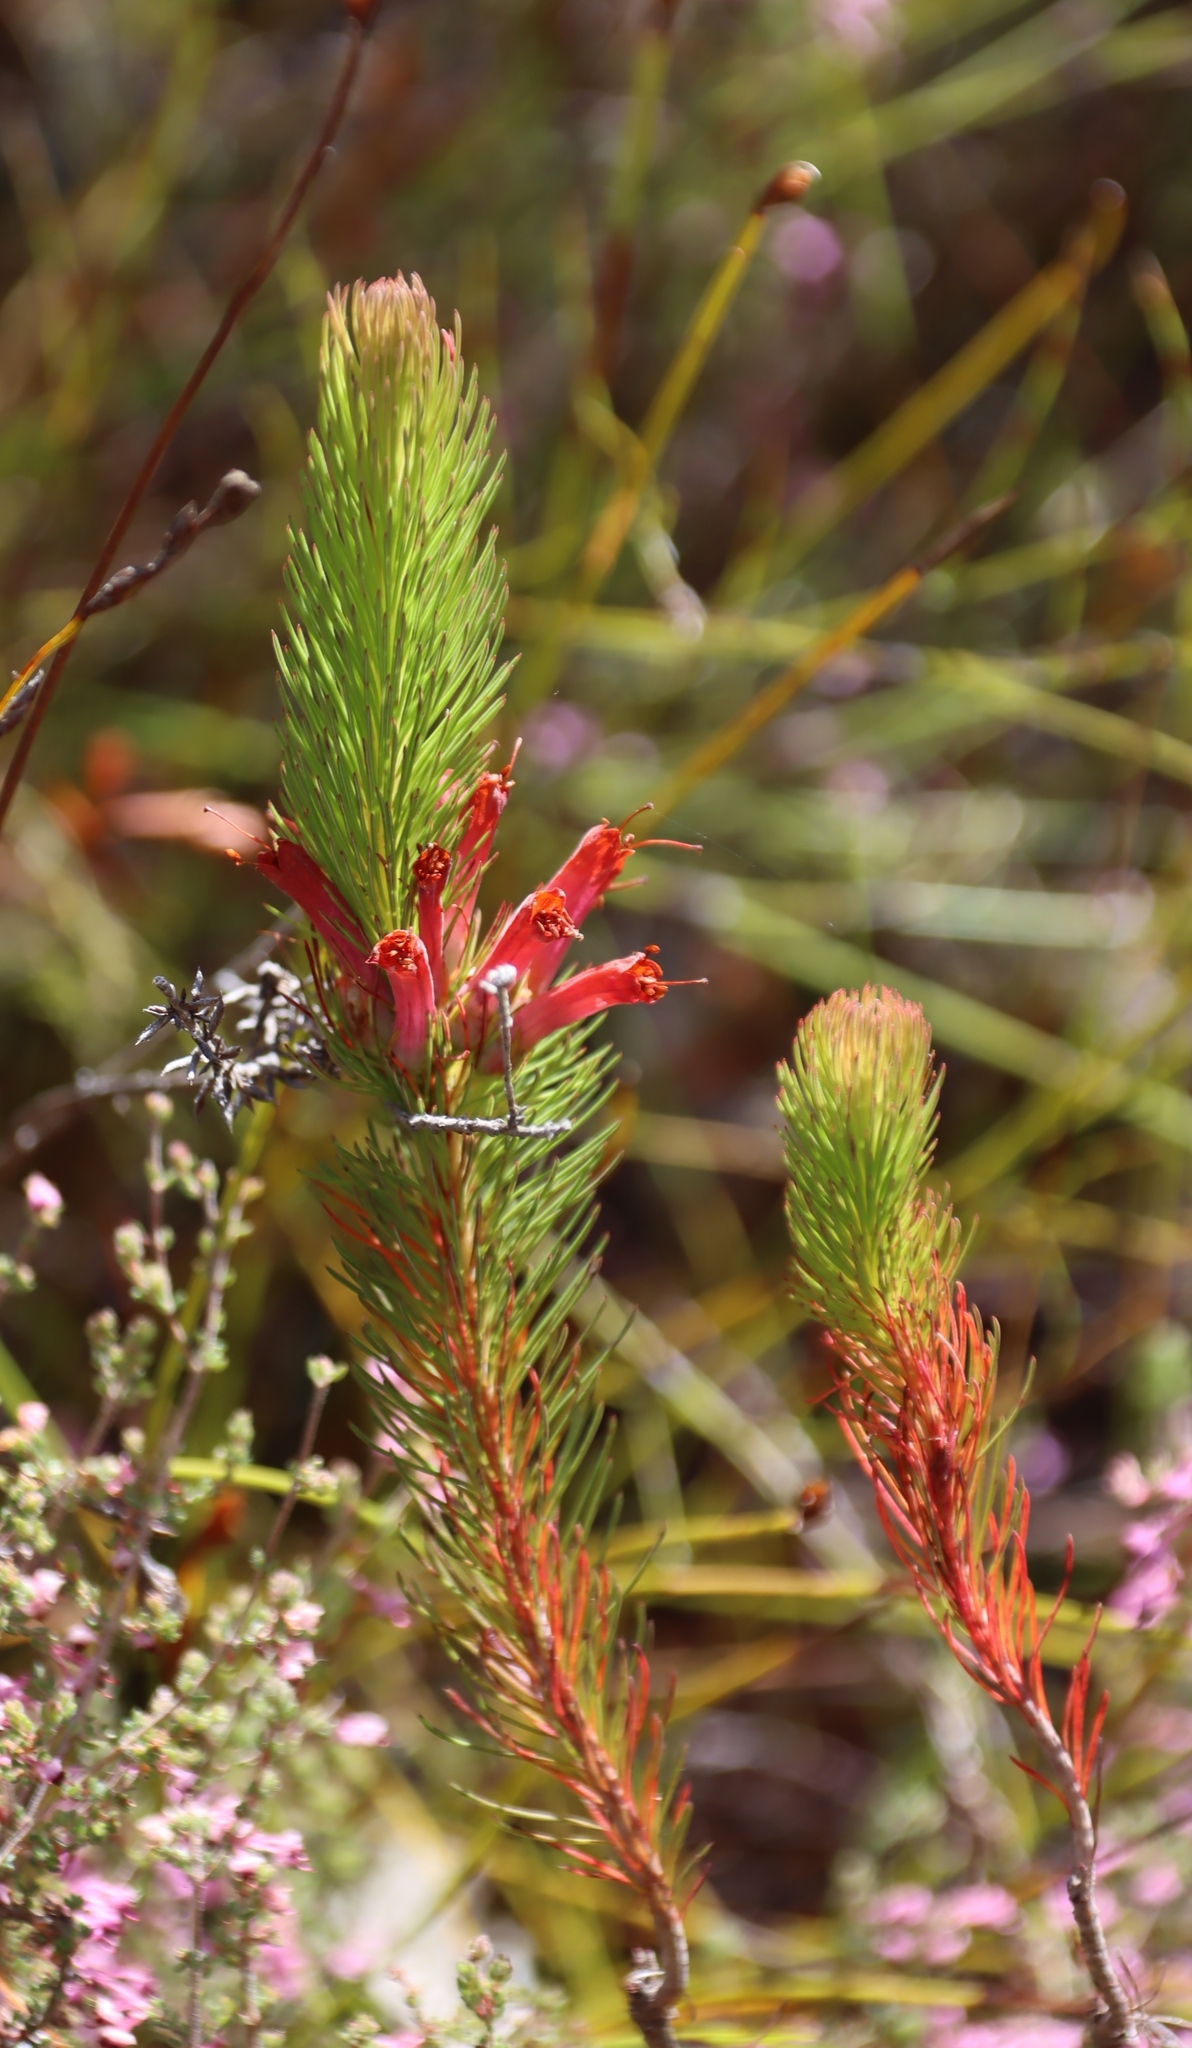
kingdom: Plantae
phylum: Tracheophyta
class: Magnoliopsida
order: Ericales
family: Ericaceae
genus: Erica
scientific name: Erica vestita
